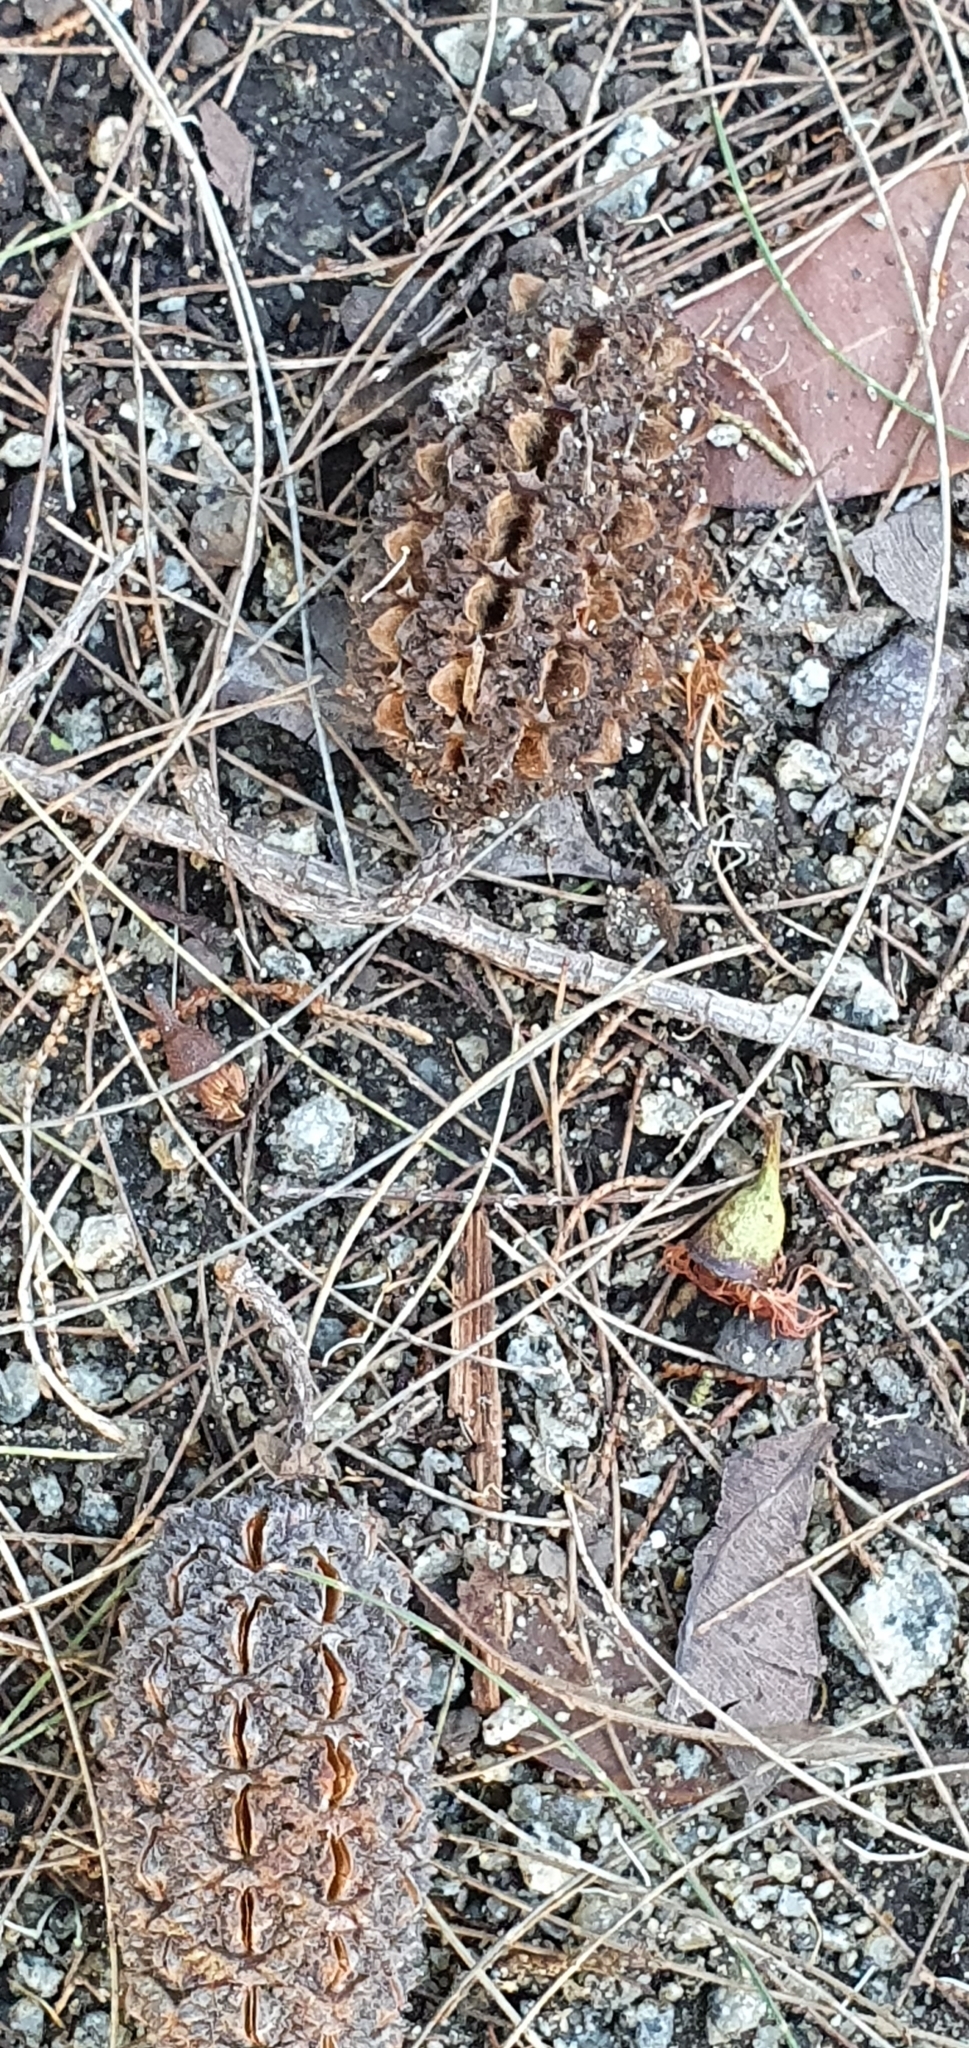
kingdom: Plantae
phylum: Tracheophyta
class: Magnoliopsida
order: Fagales
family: Casuarinaceae
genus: Allocasuarina
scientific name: Allocasuarina torulosa
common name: Forest-oak
